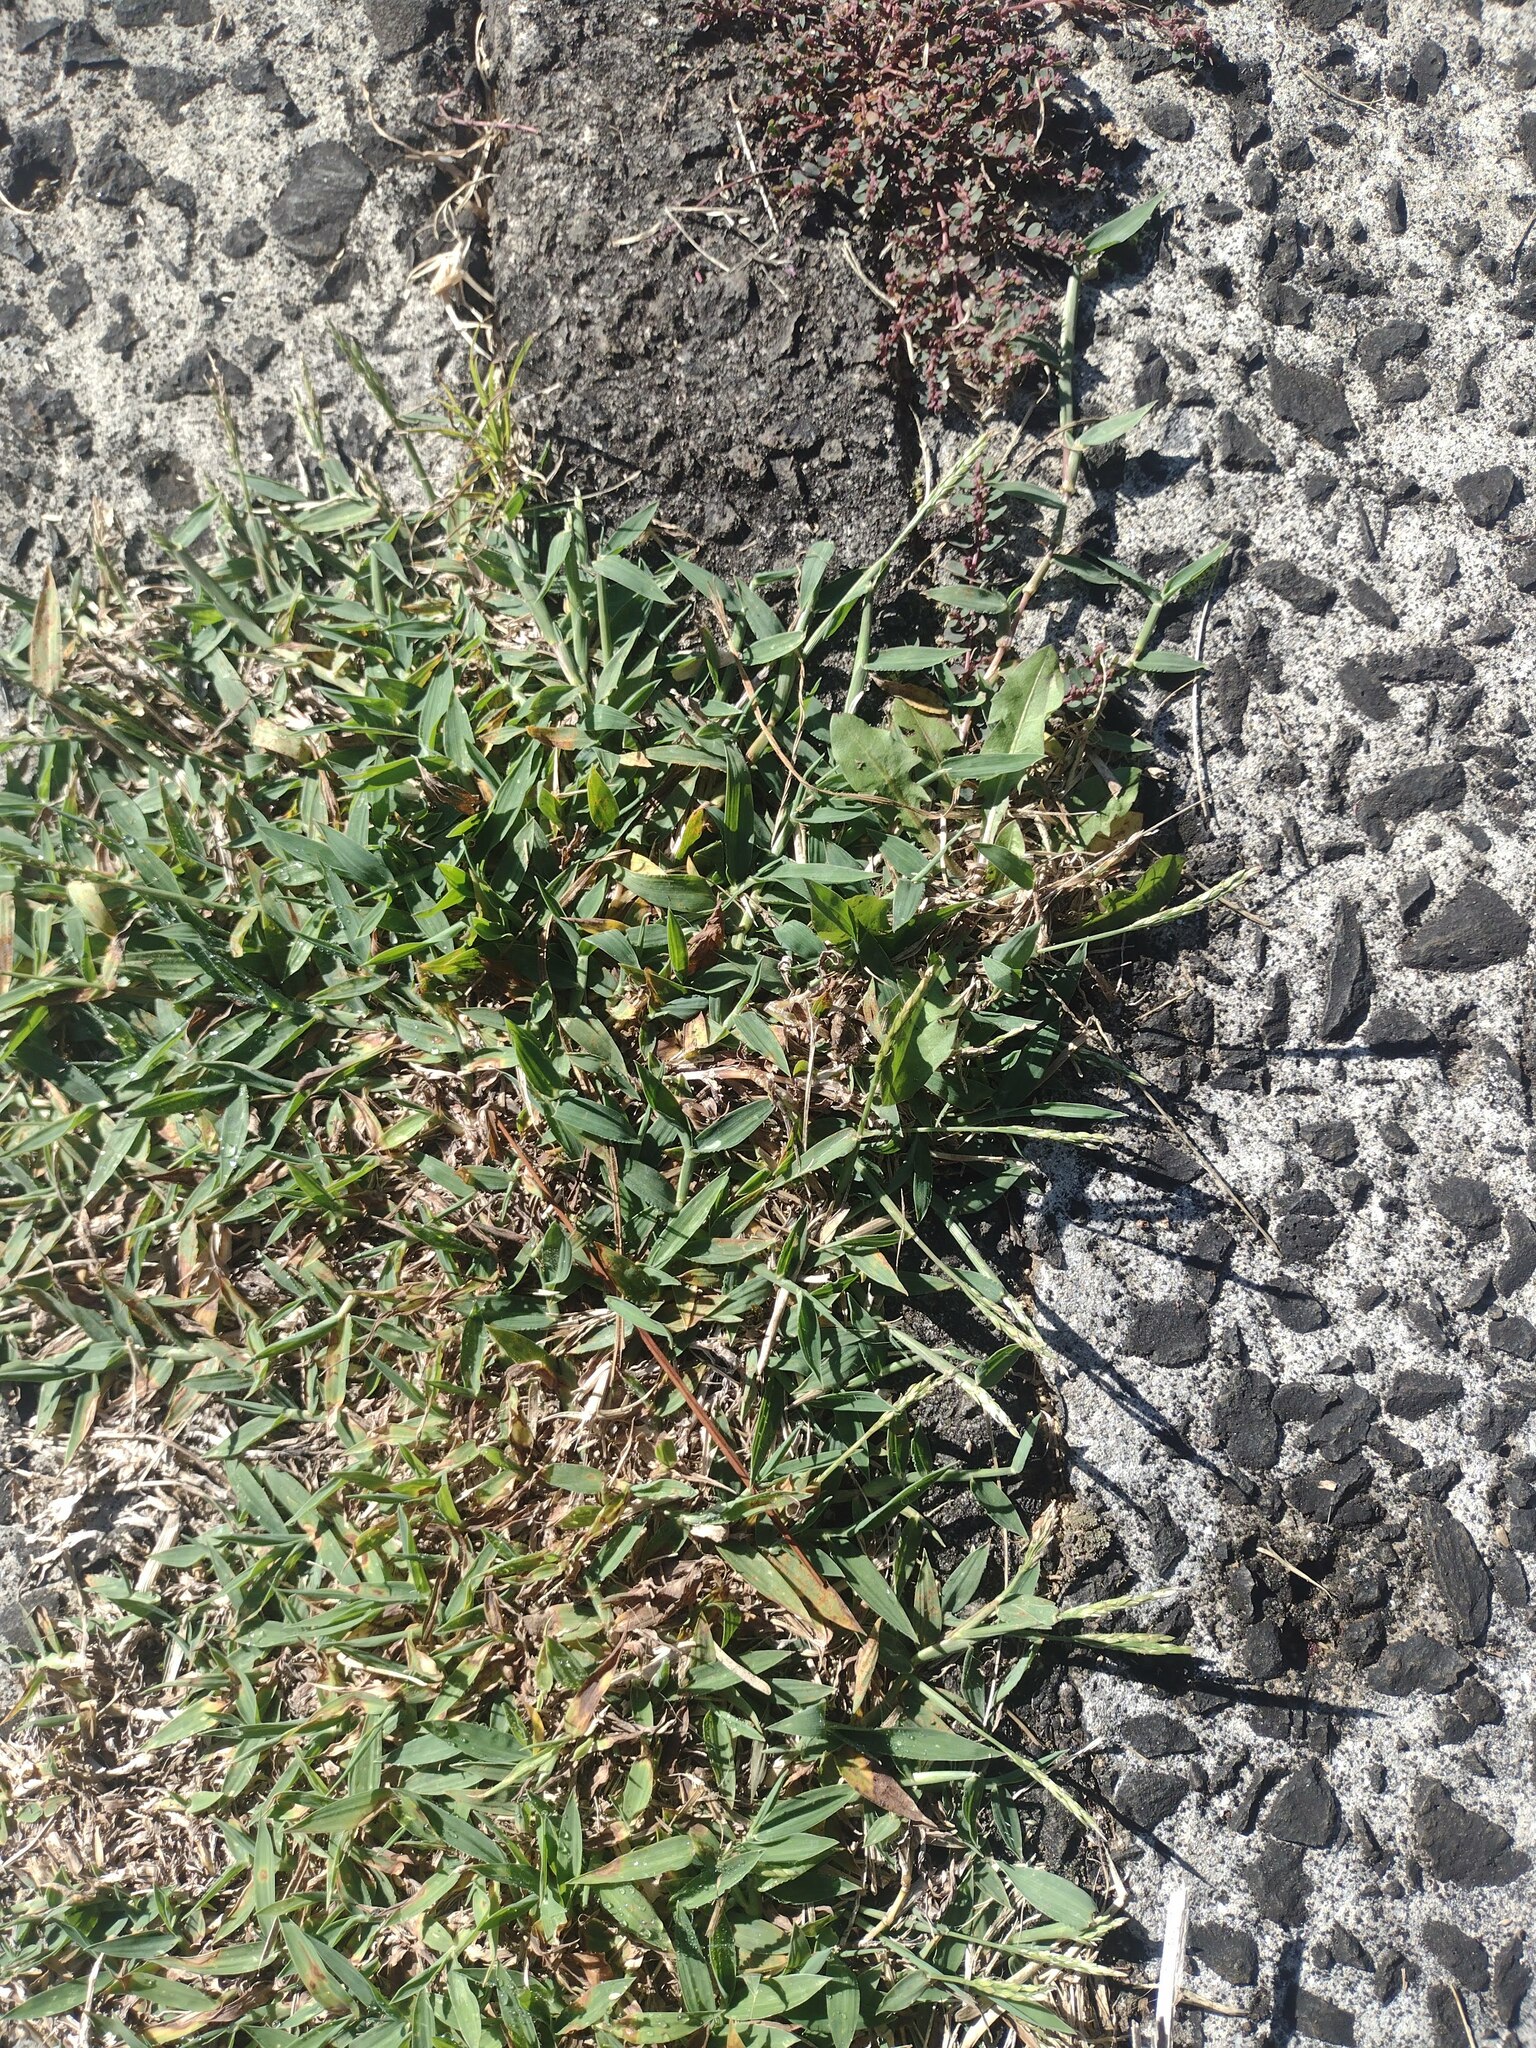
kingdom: Plantae
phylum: Tracheophyta
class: Liliopsida
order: Poales
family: Poaceae
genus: Digitaria
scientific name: Digitaria ciliaris
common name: Tropical finger-grass
